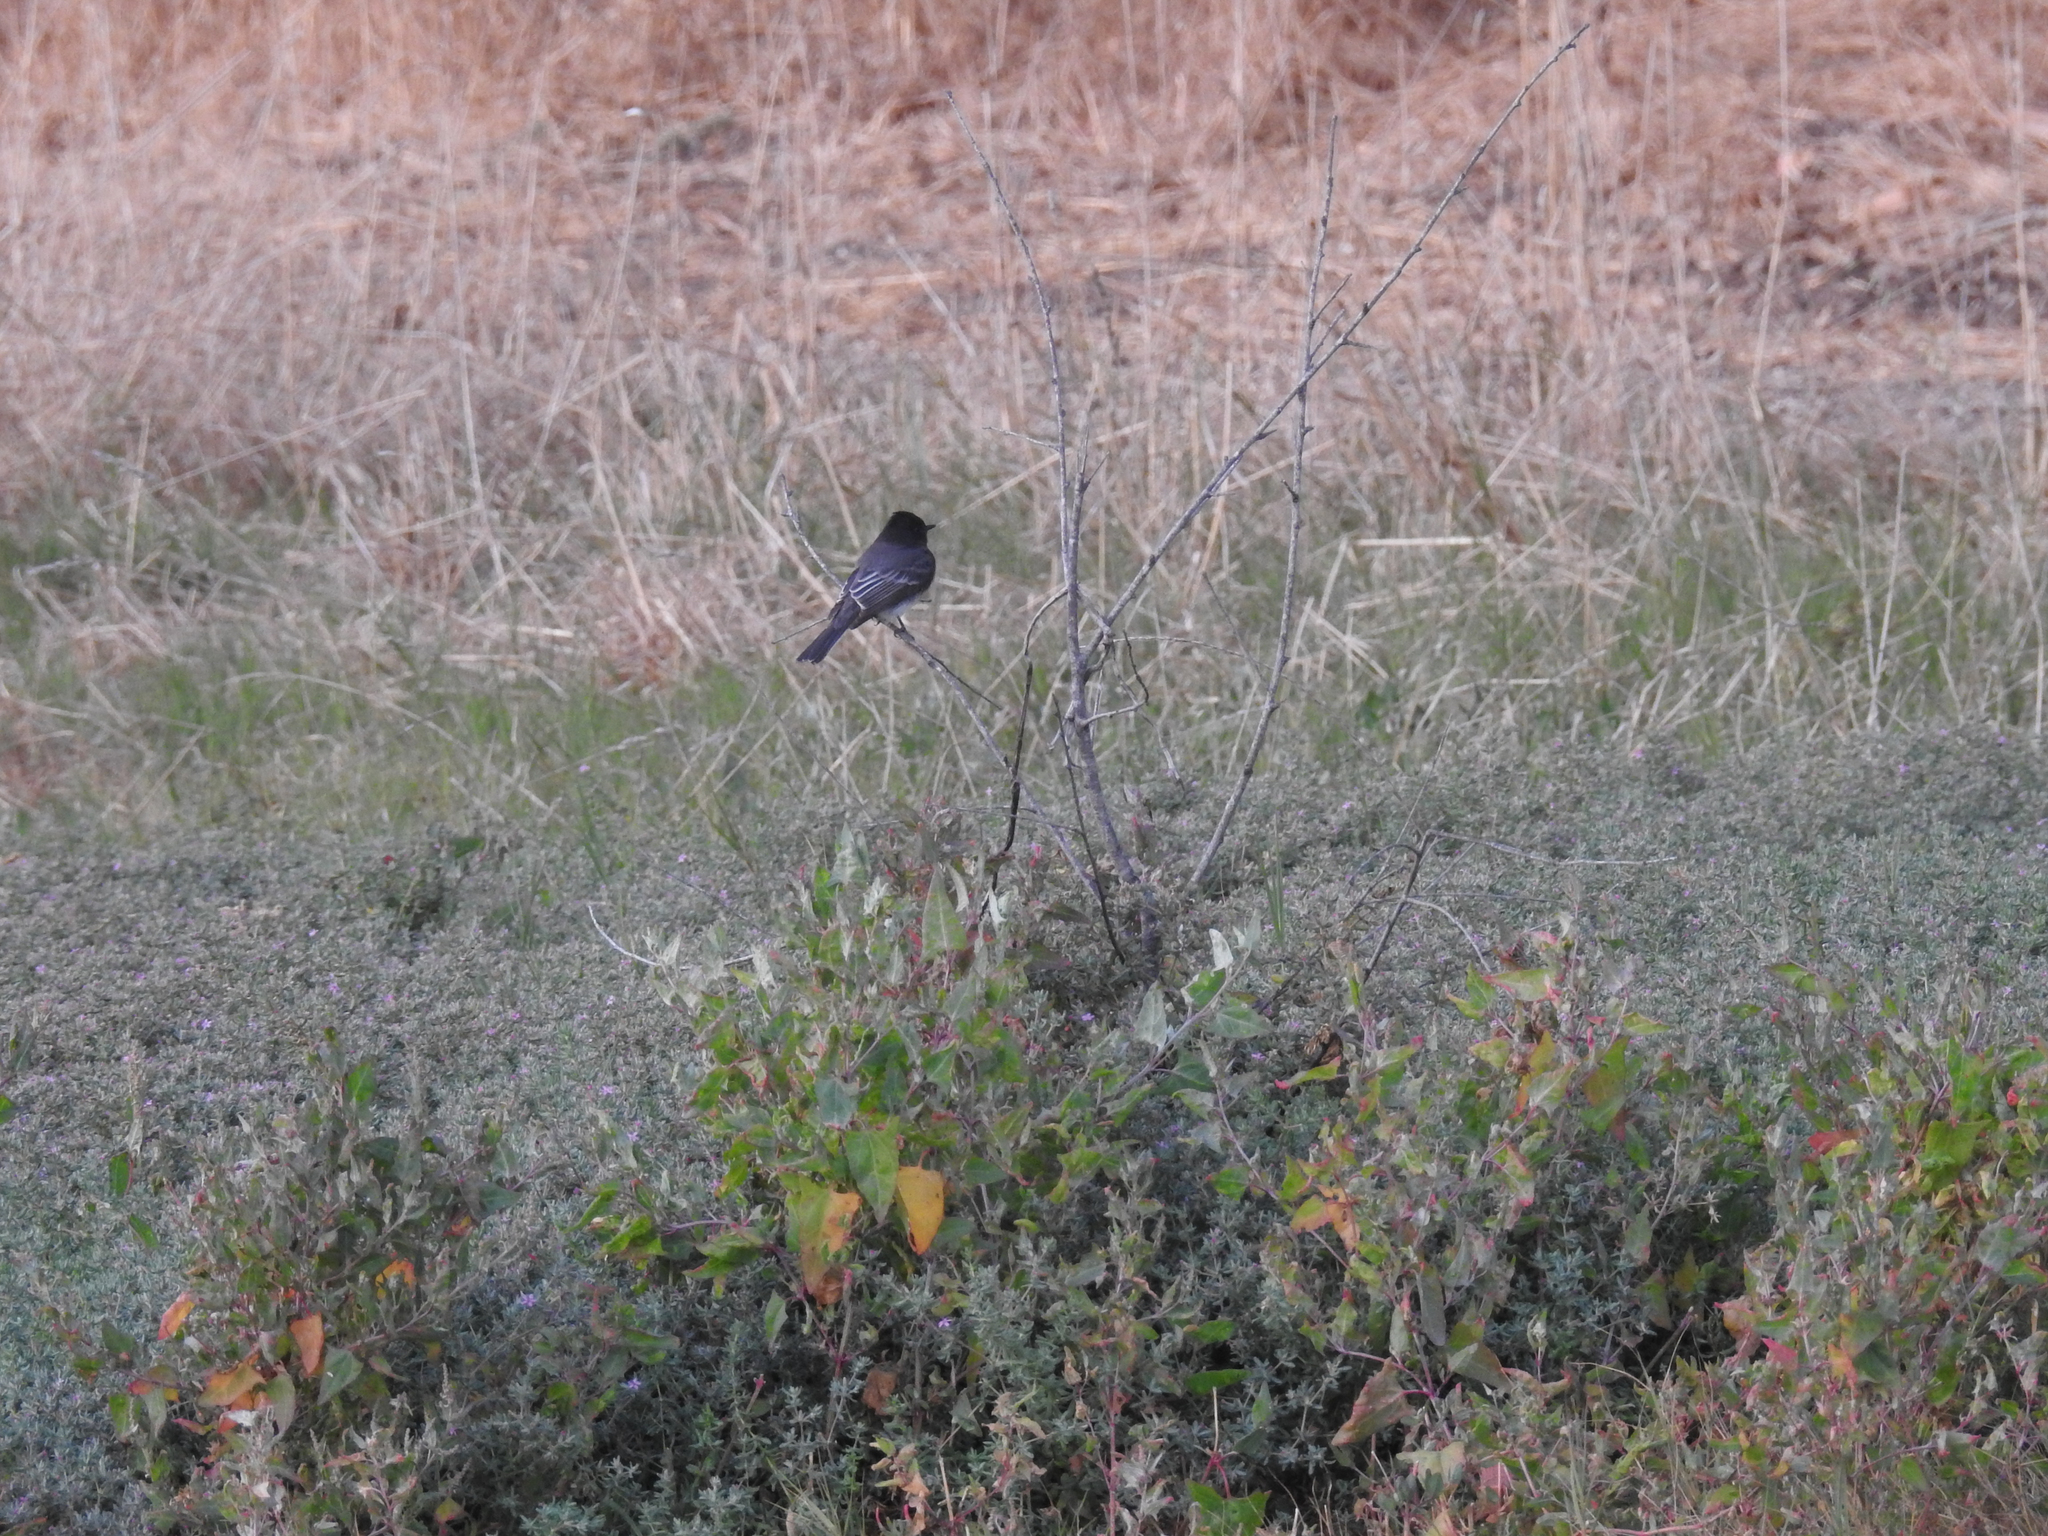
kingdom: Animalia
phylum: Chordata
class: Aves
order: Passeriformes
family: Tyrannidae
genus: Sayornis
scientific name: Sayornis nigricans
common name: Black phoebe
